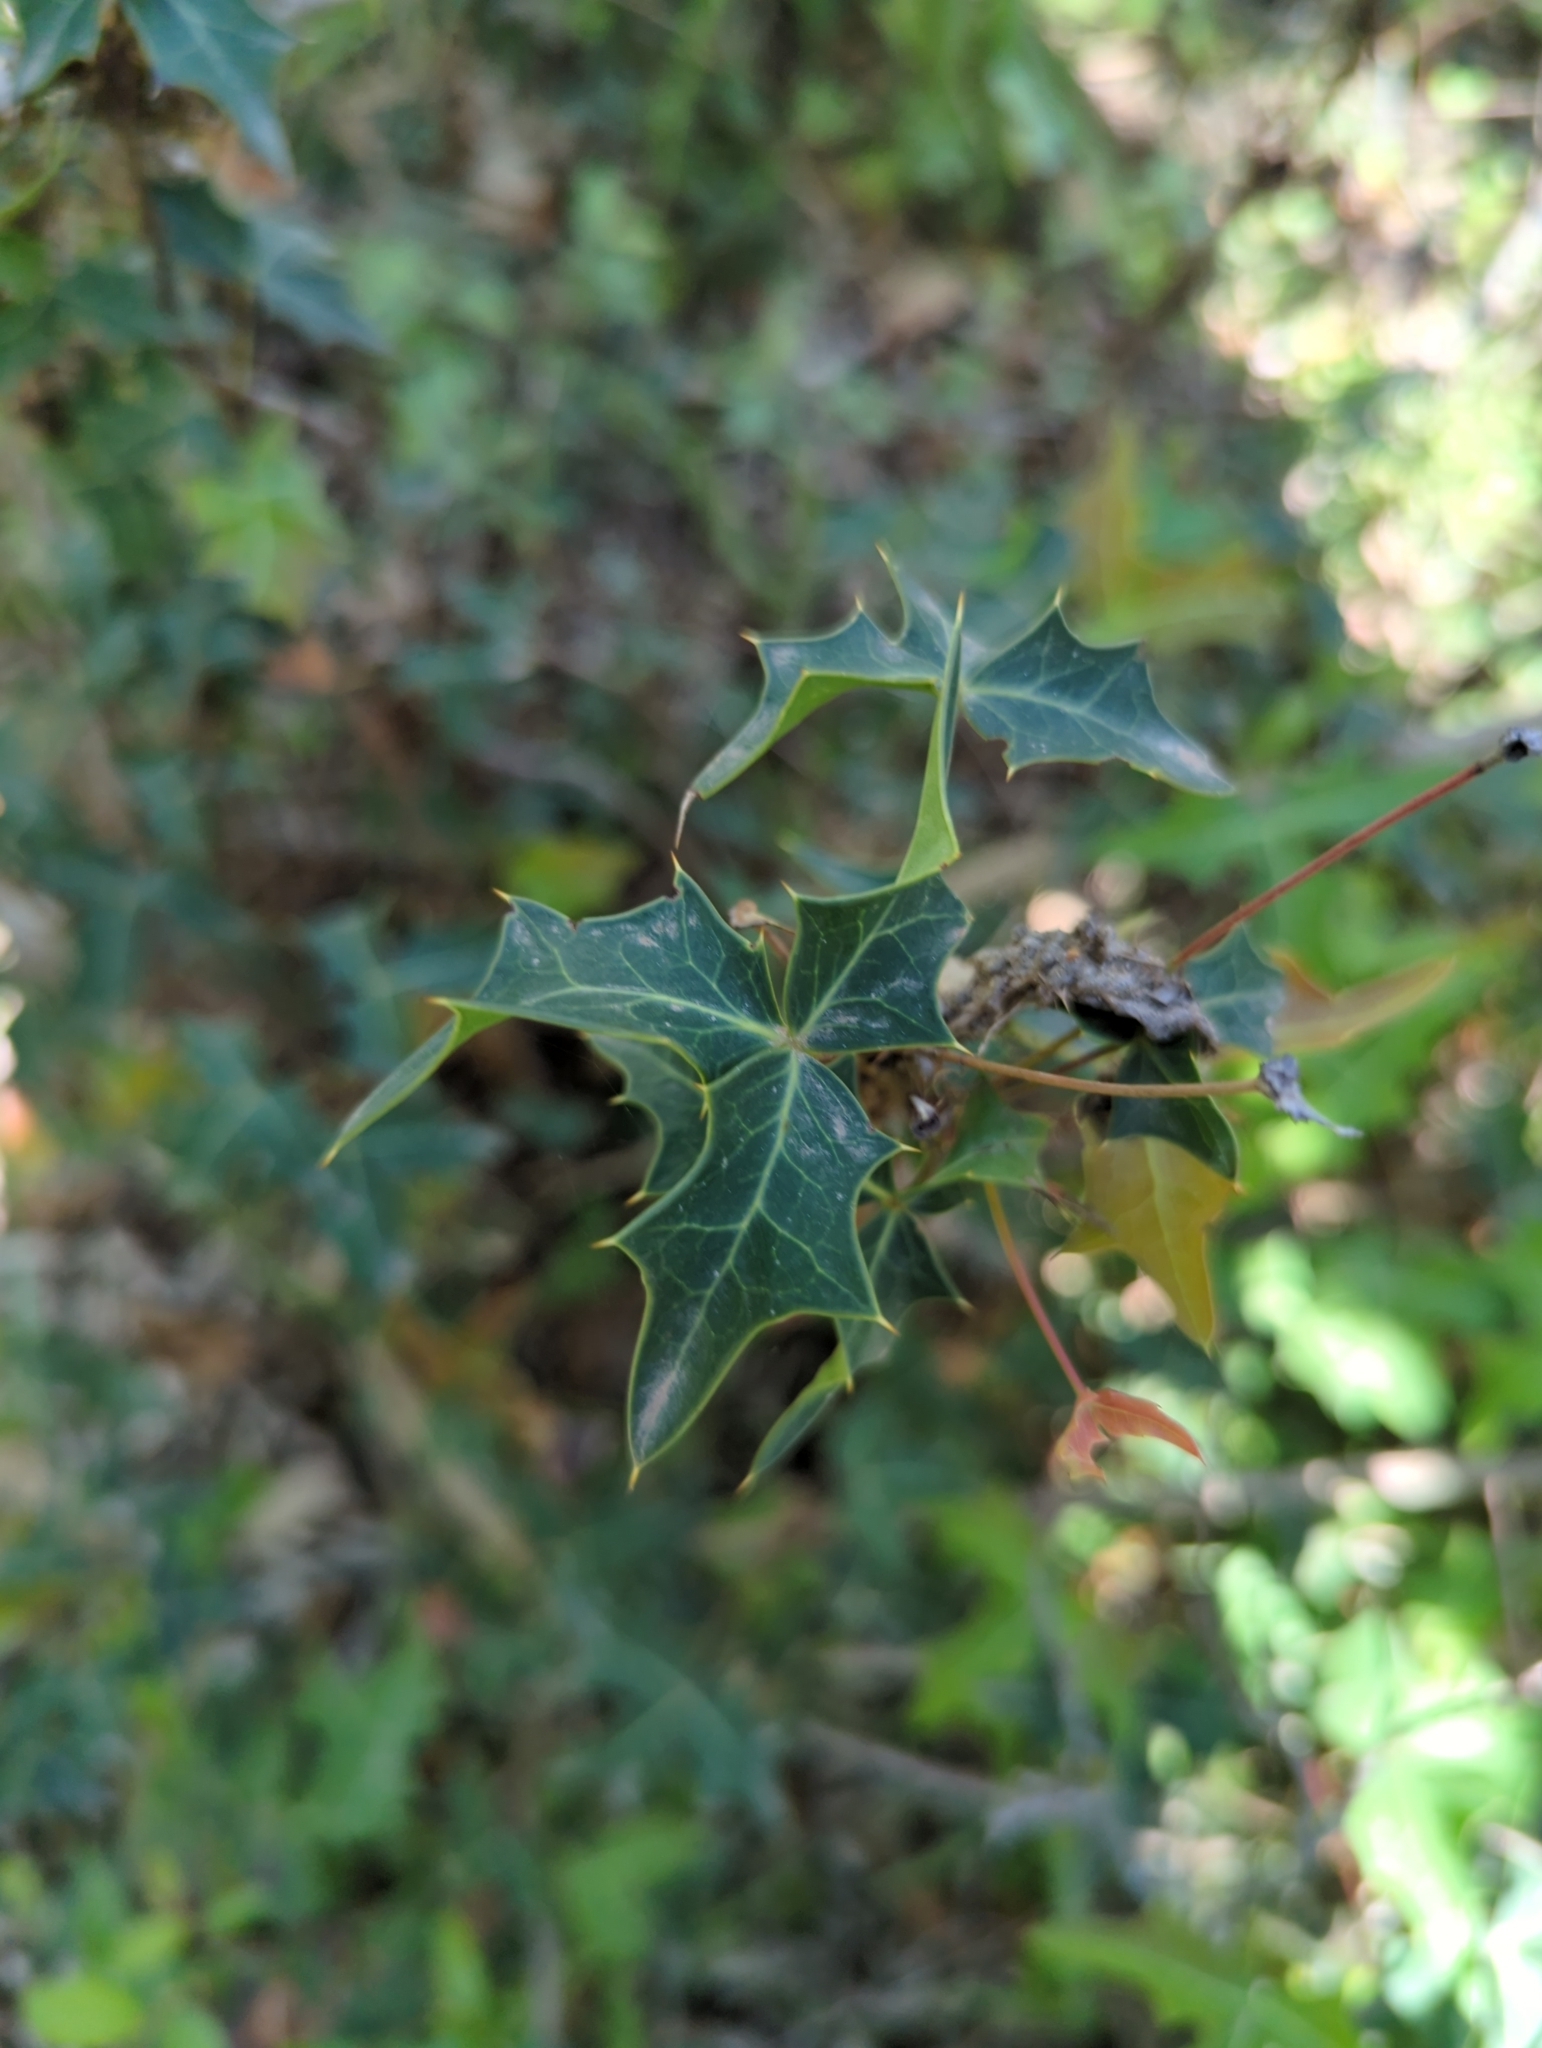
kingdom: Plantae
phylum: Tracheophyta
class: Magnoliopsida
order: Ranunculales
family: Berberidaceae
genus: Alloberberis
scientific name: Alloberberis trifoliolata
